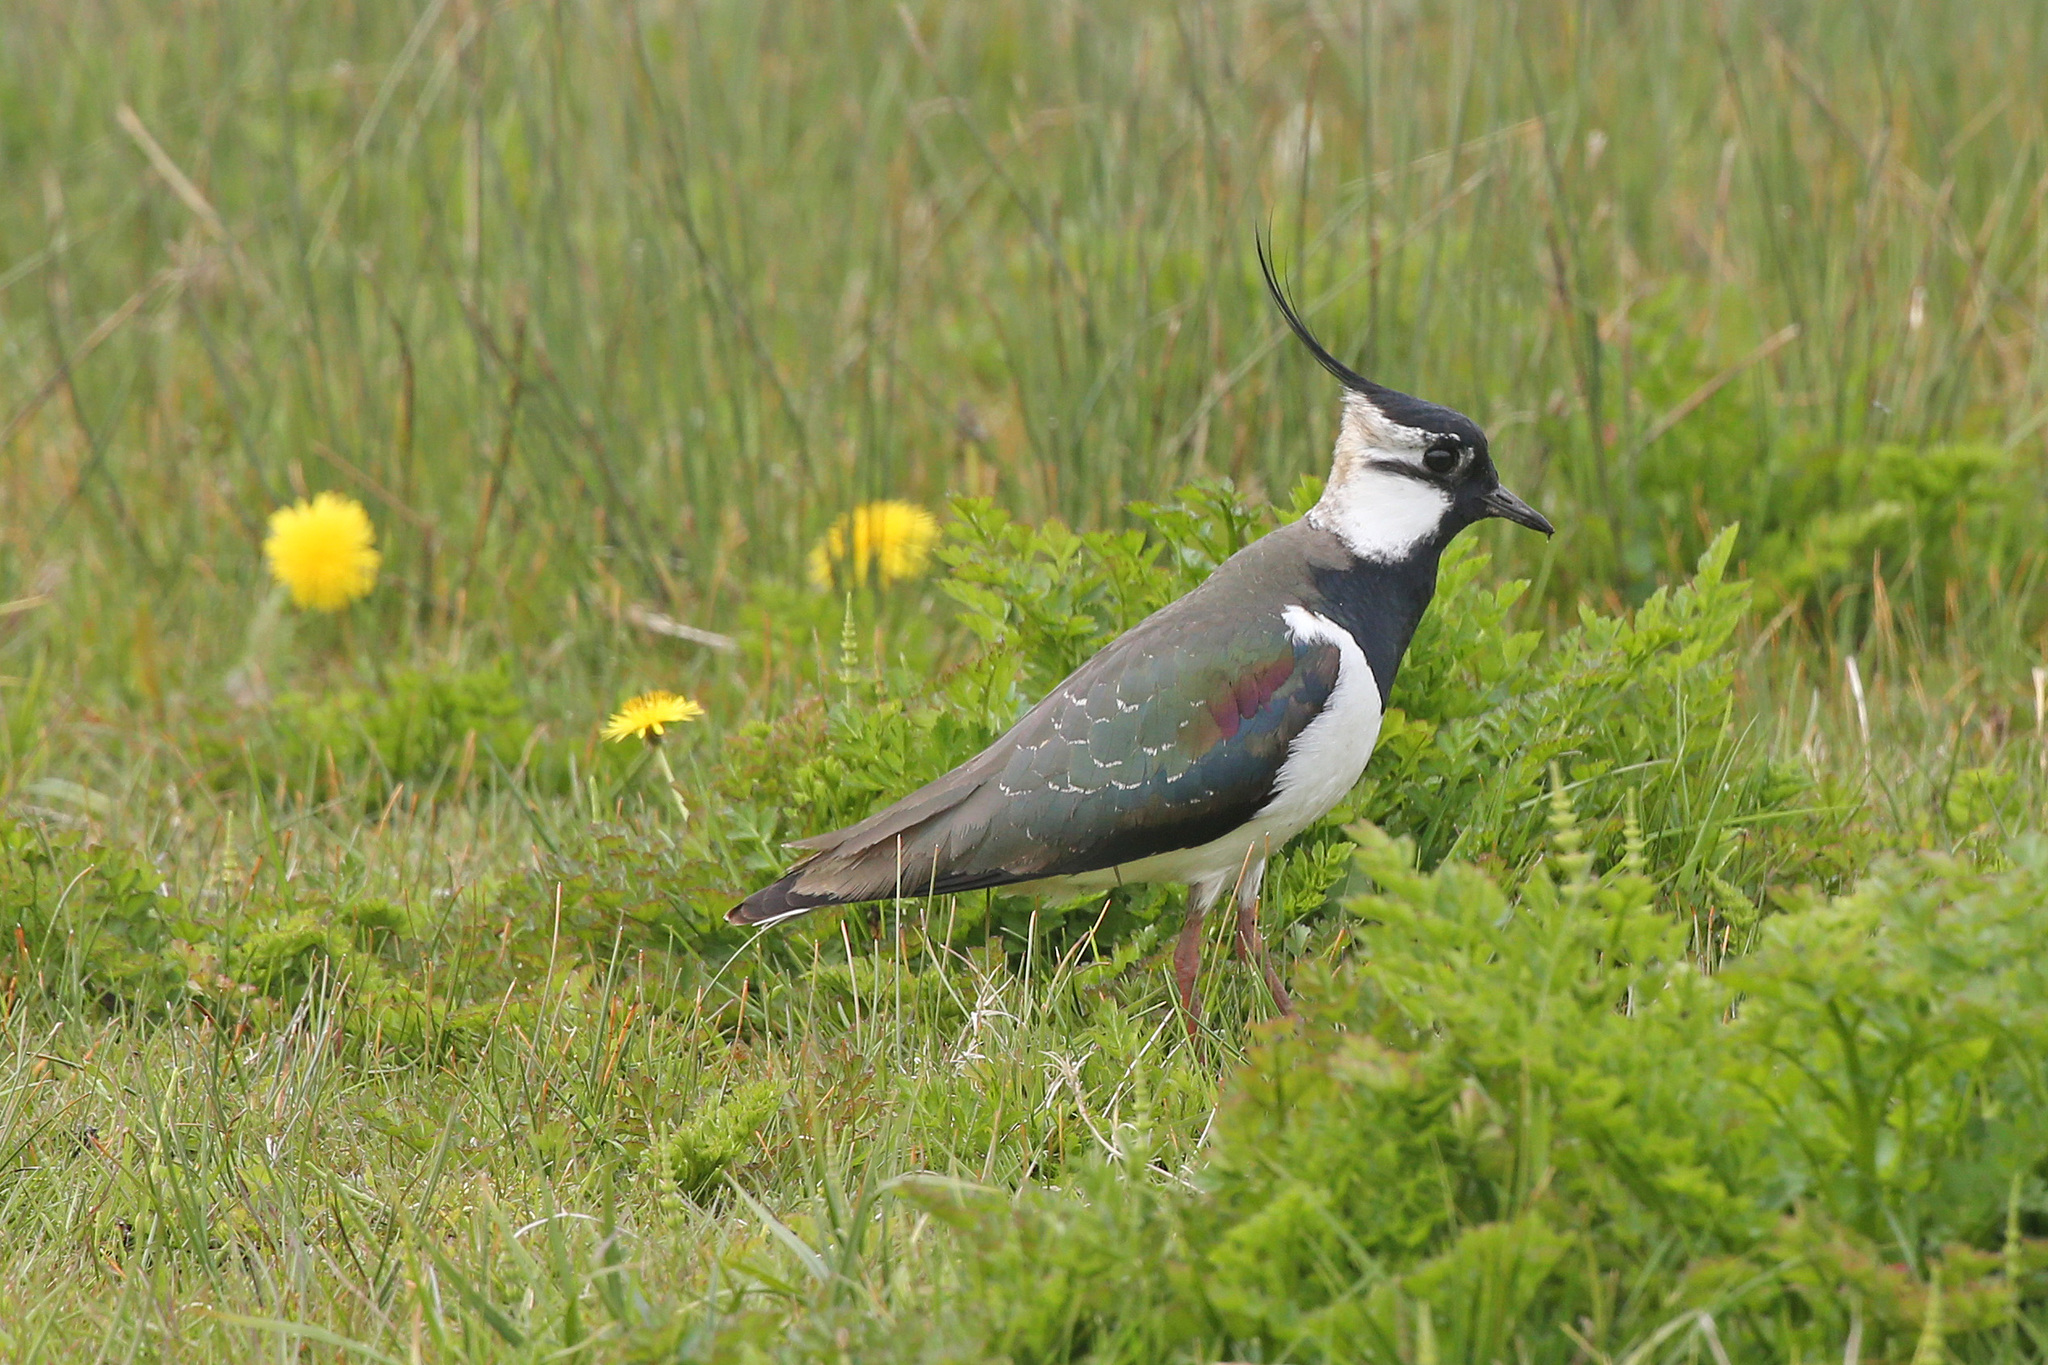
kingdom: Animalia
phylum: Chordata
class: Aves
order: Charadriiformes
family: Charadriidae
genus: Vanellus
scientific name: Vanellus vanellus
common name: Northern lapwing
